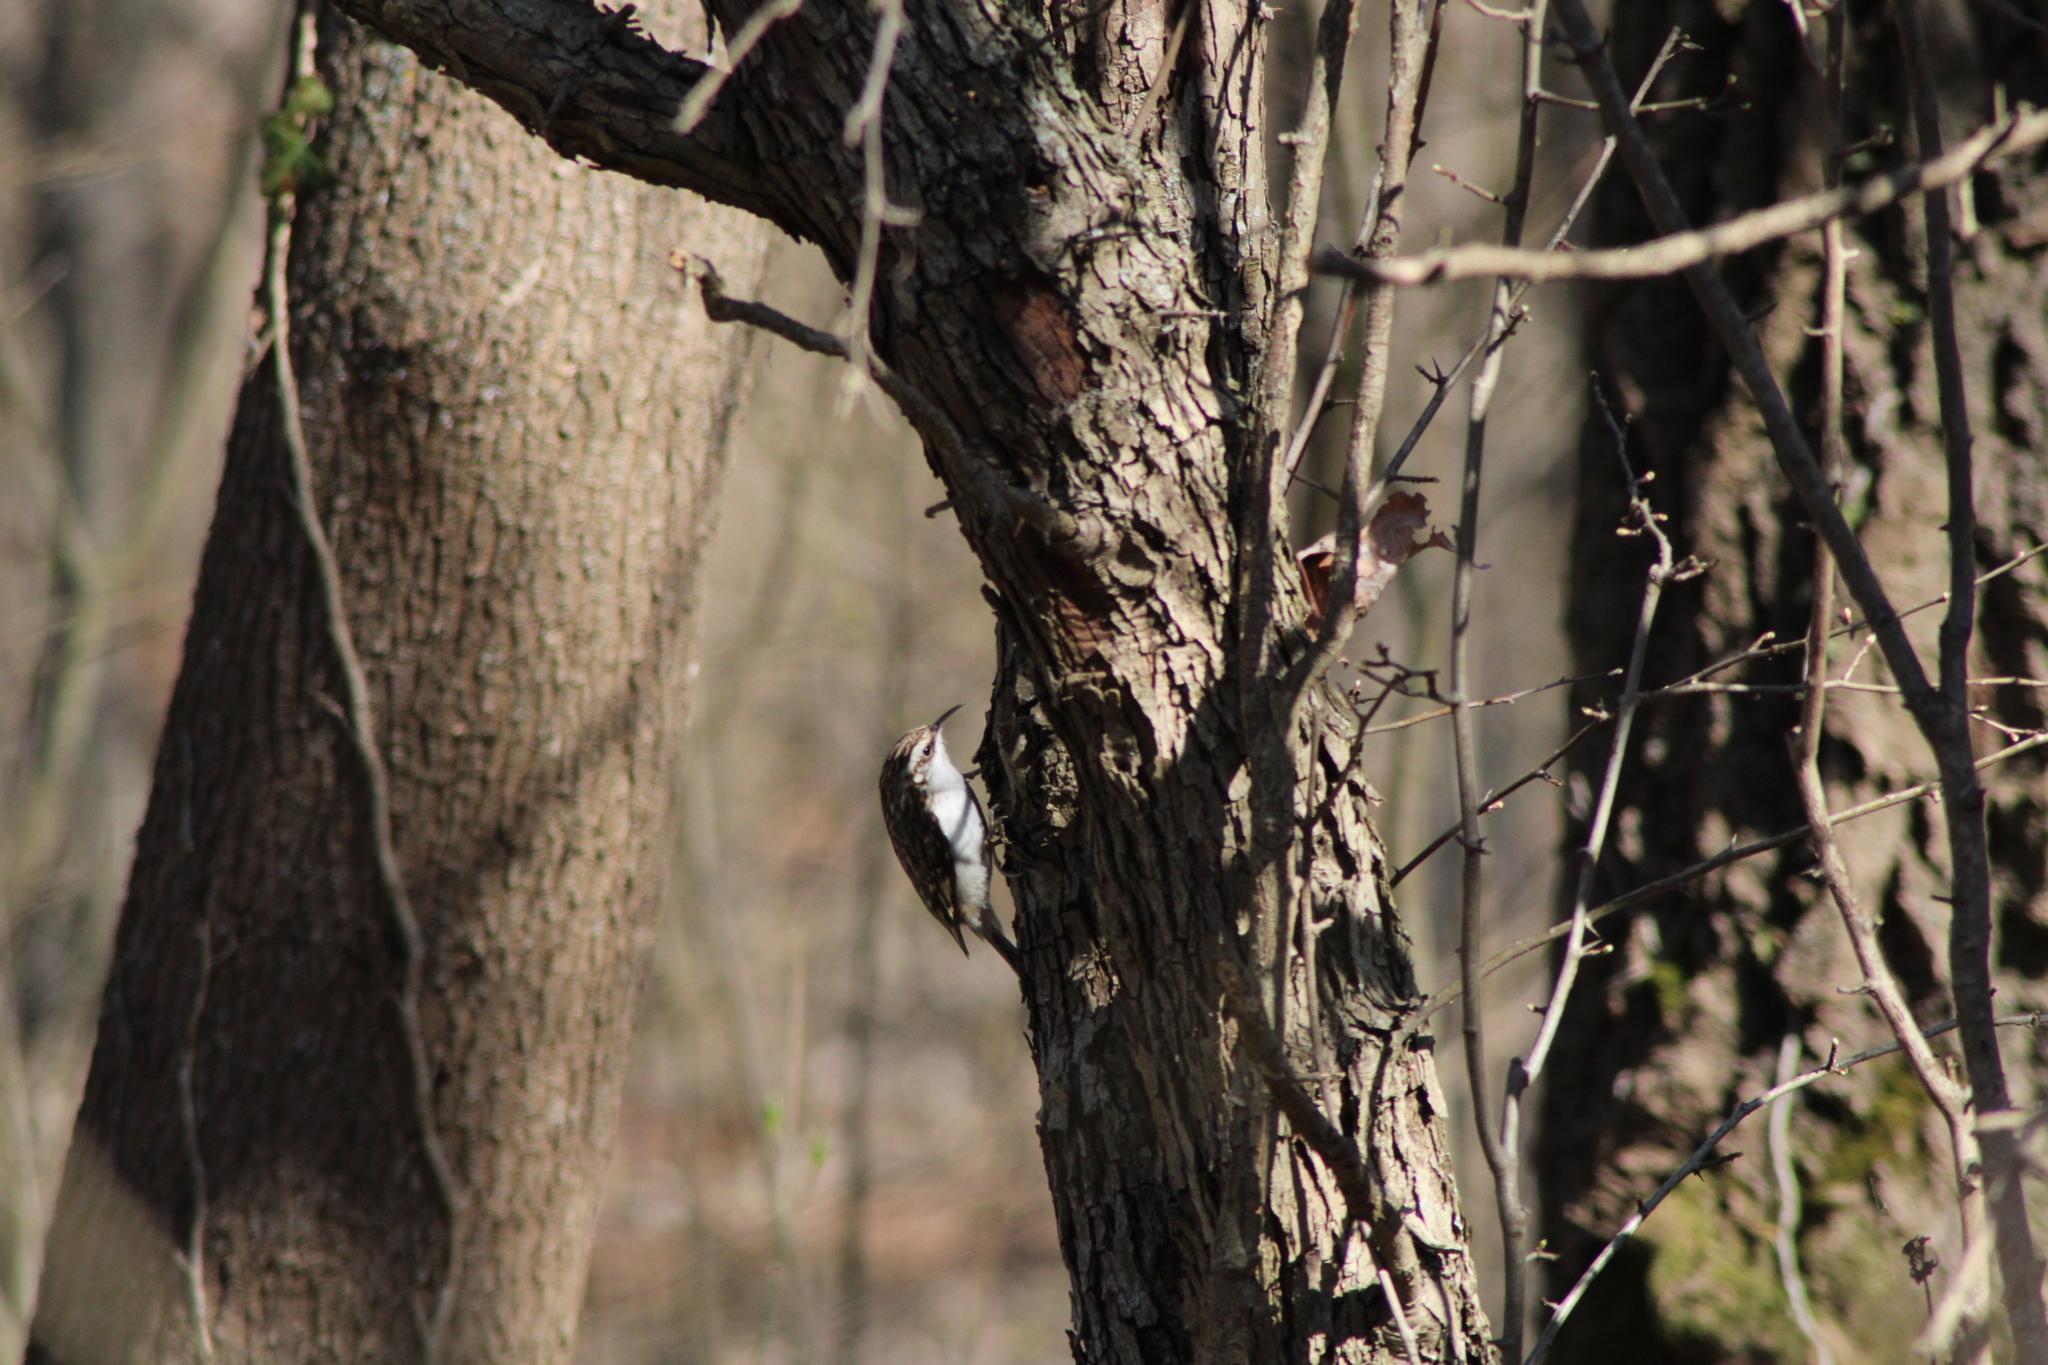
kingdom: Animalia
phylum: Chordata
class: Aves
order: Passeriformes
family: Certhiidae
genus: Certhia
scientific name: Certhia familiaris
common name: Eurasian treecreeper
